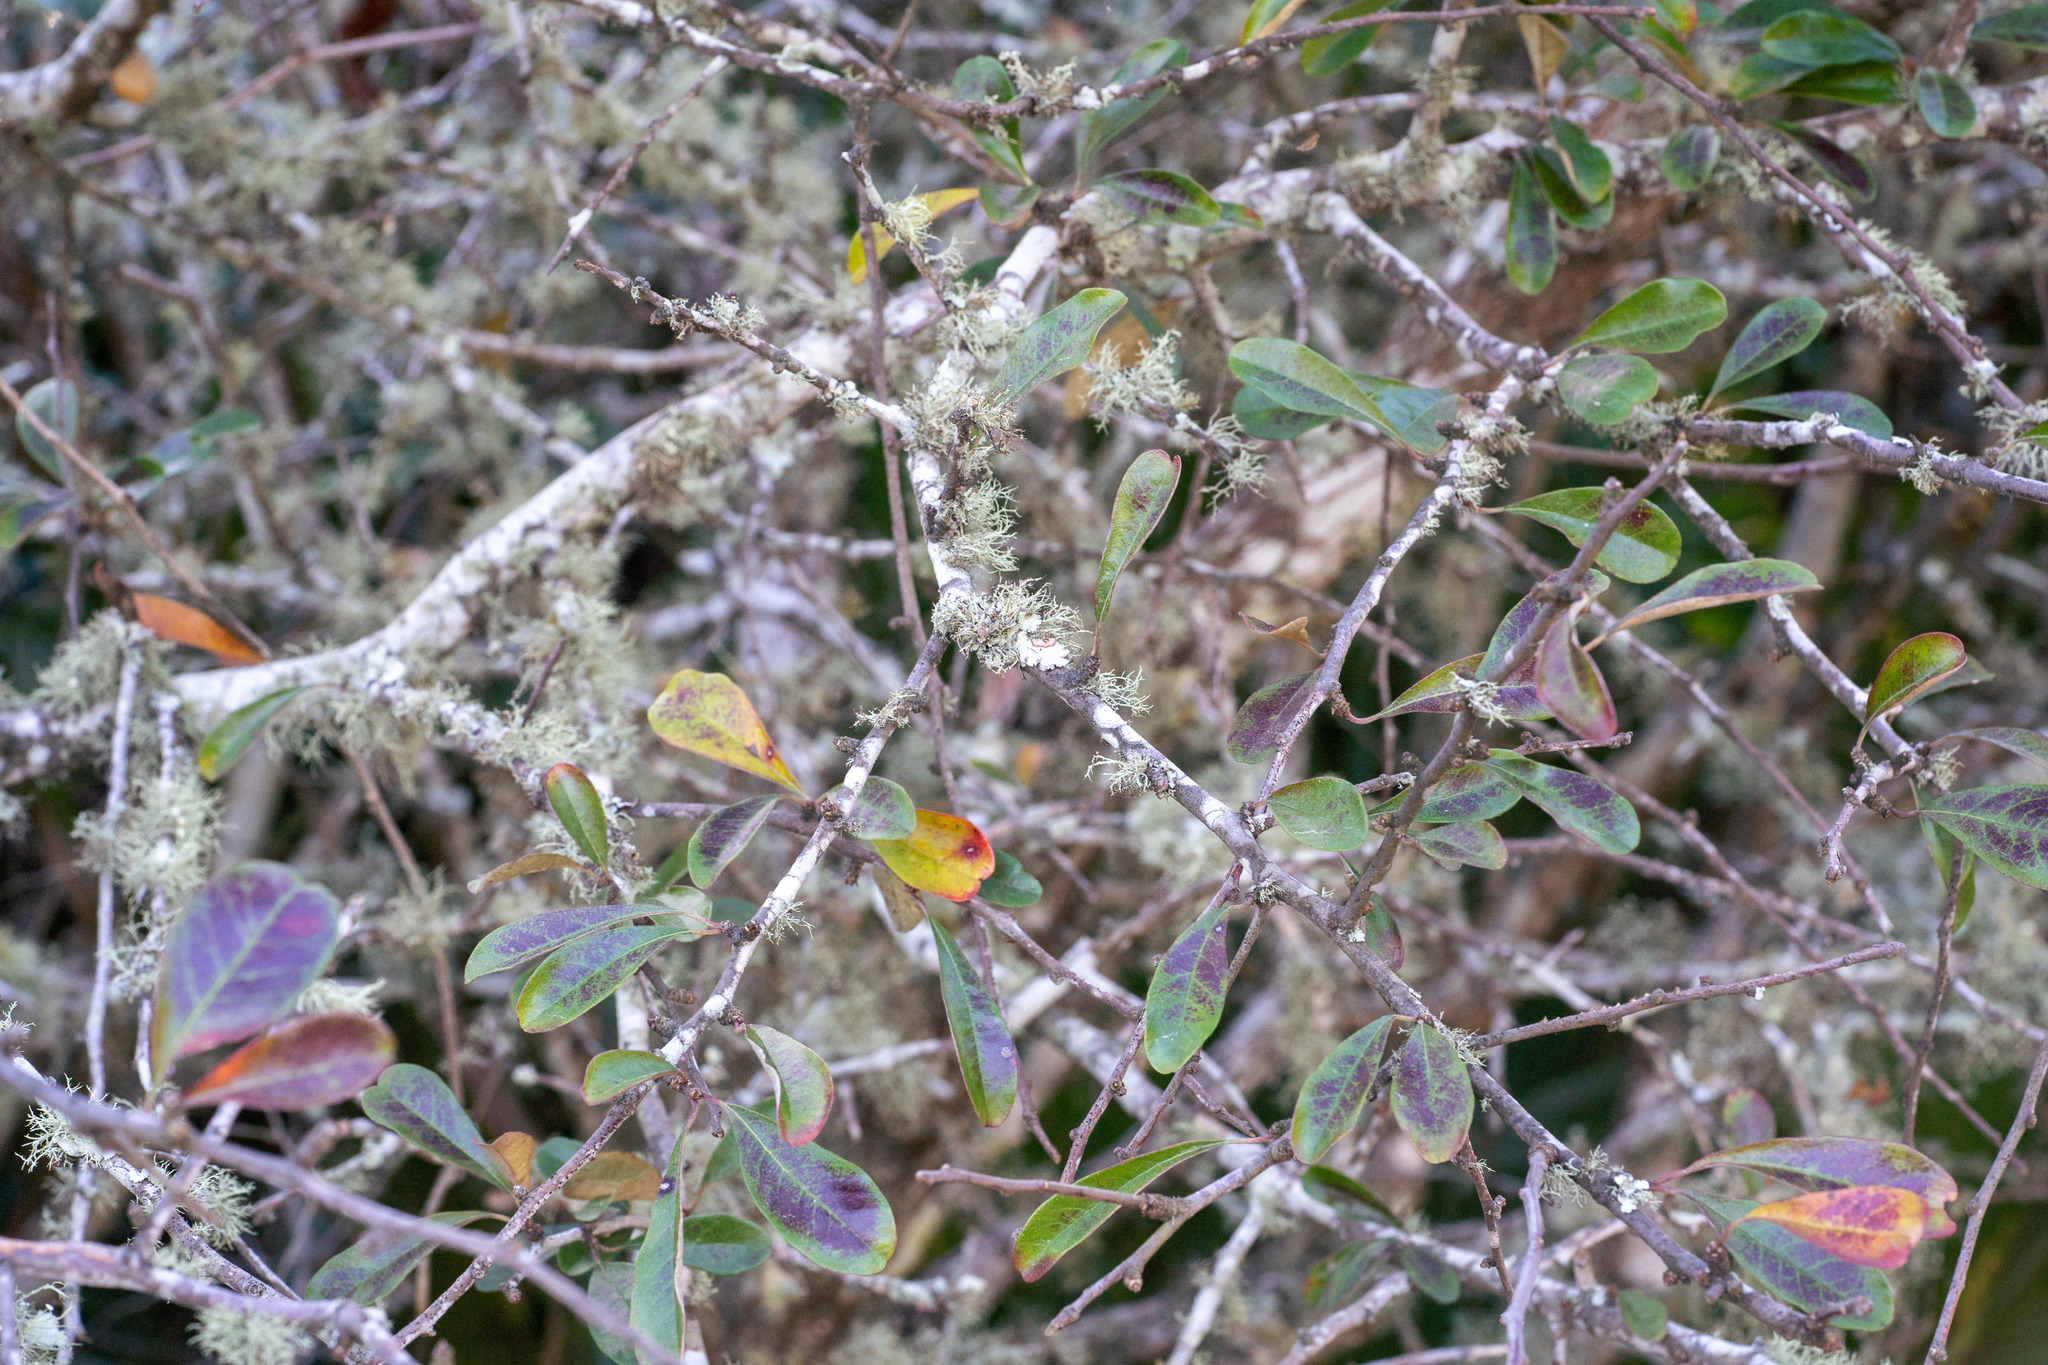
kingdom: Plantae
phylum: Tracheophyta
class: Magnoliopsida
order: Ericales
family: Sapotaceae
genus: Sideroxylon
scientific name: Sideroxylon tenax
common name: Tough-buckthorn
